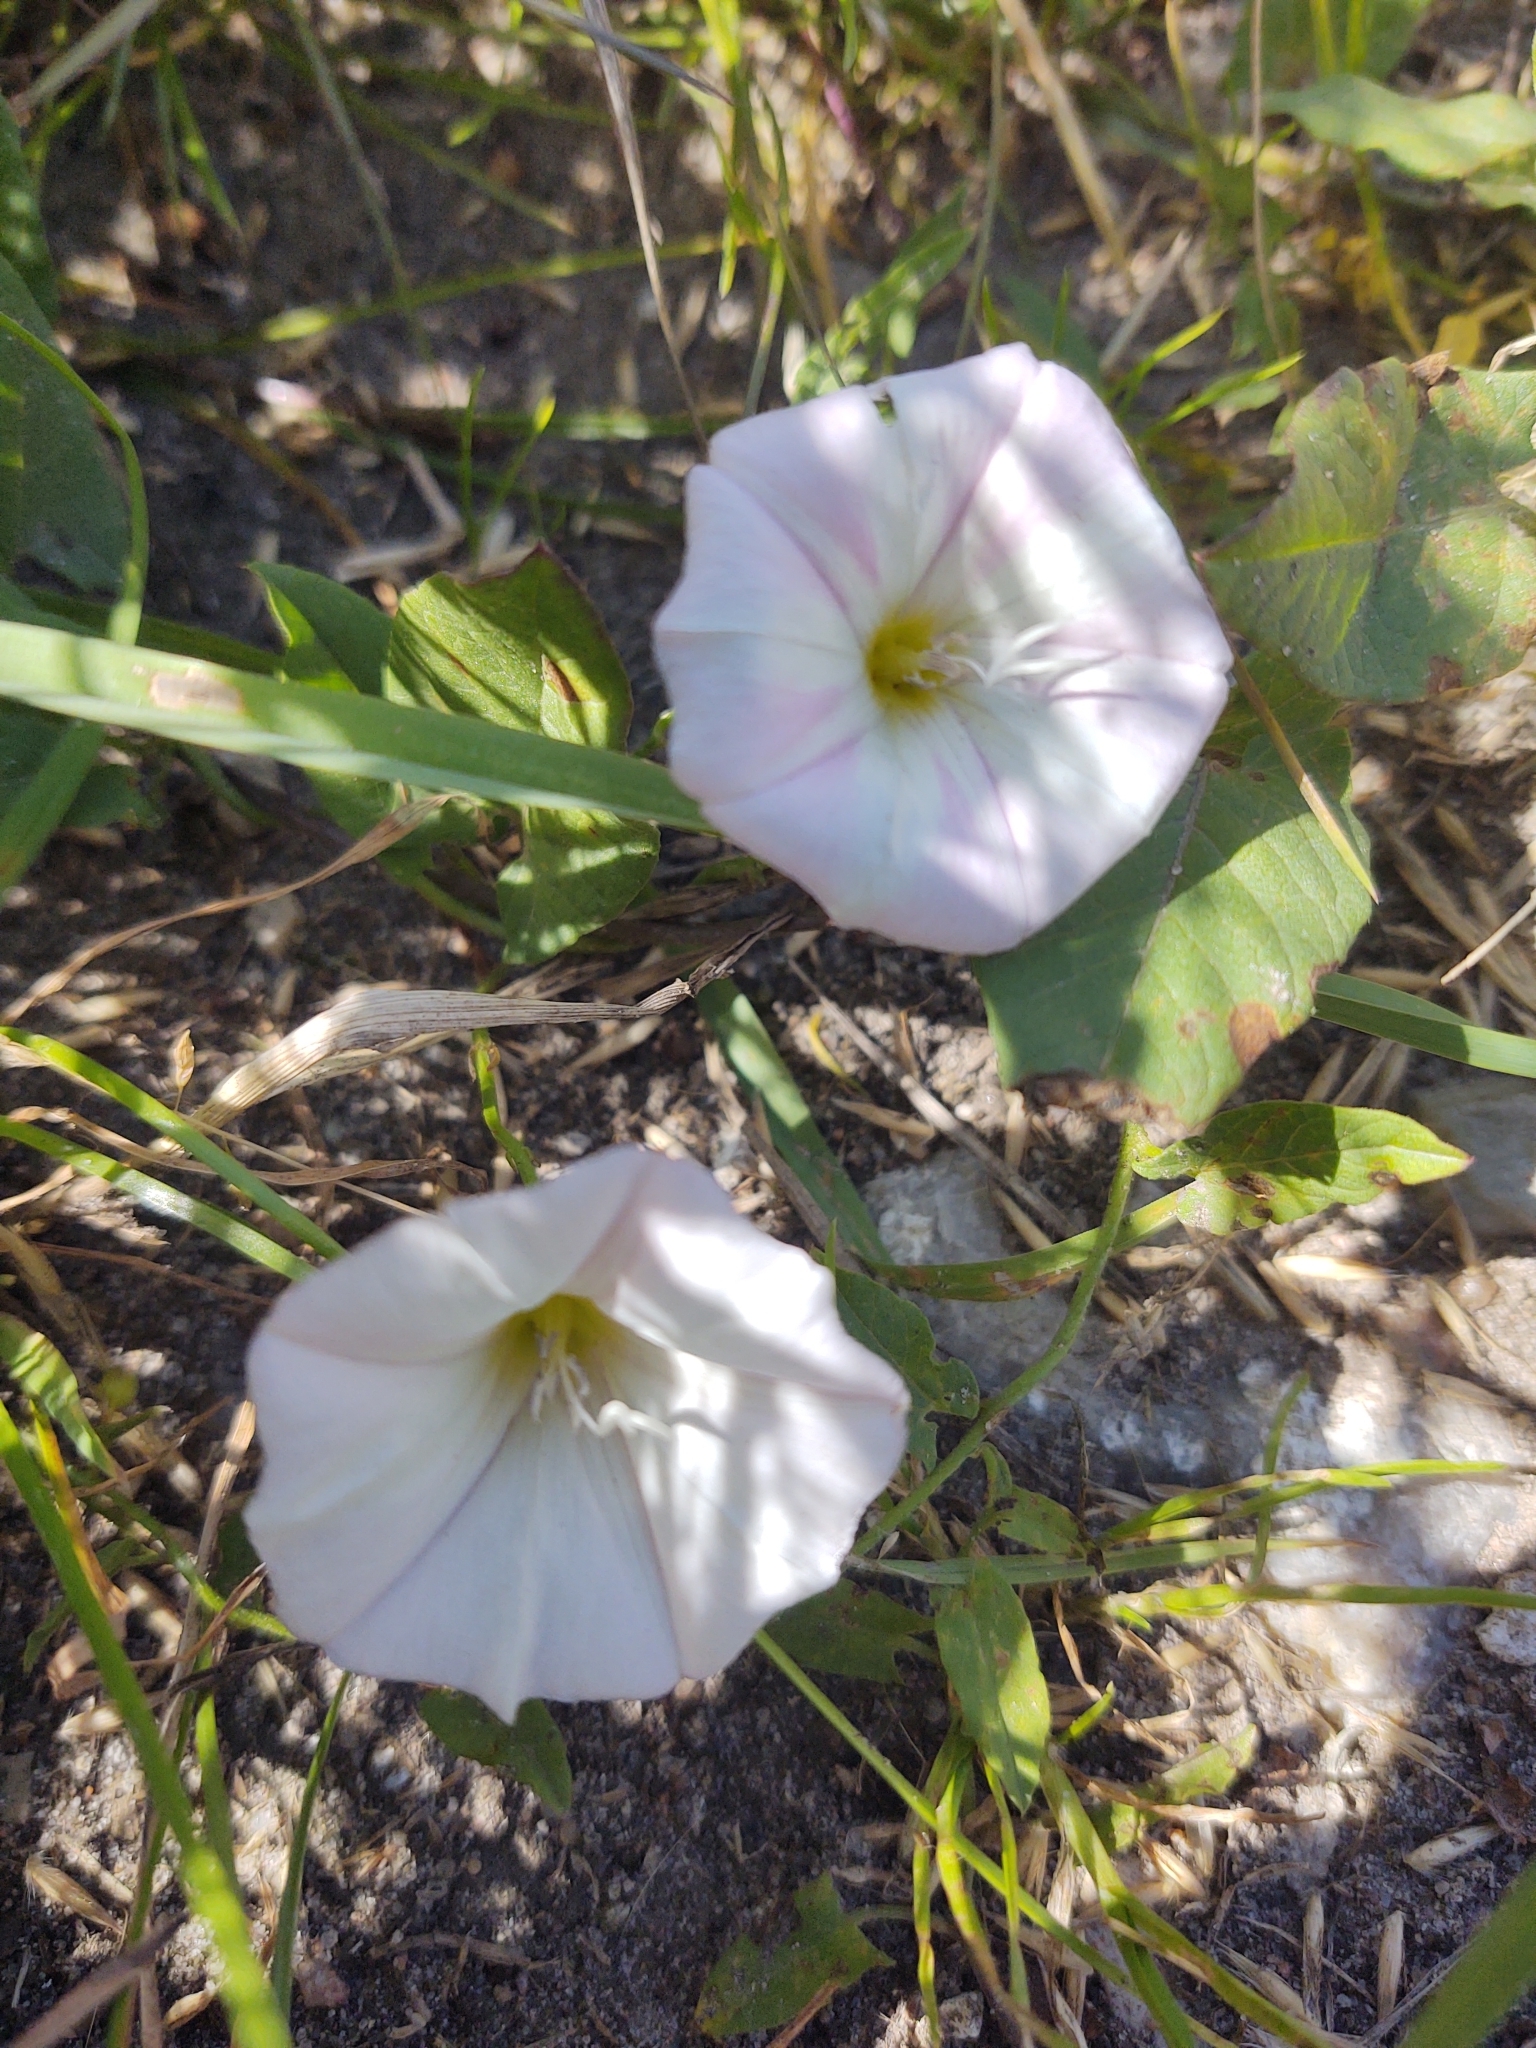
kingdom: Plantae
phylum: Tracheophyta
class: Magnoliopsida
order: Solanales
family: Convolvulaceae
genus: Convolvulus
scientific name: Convolvulus arvensis
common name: Field bindweed
